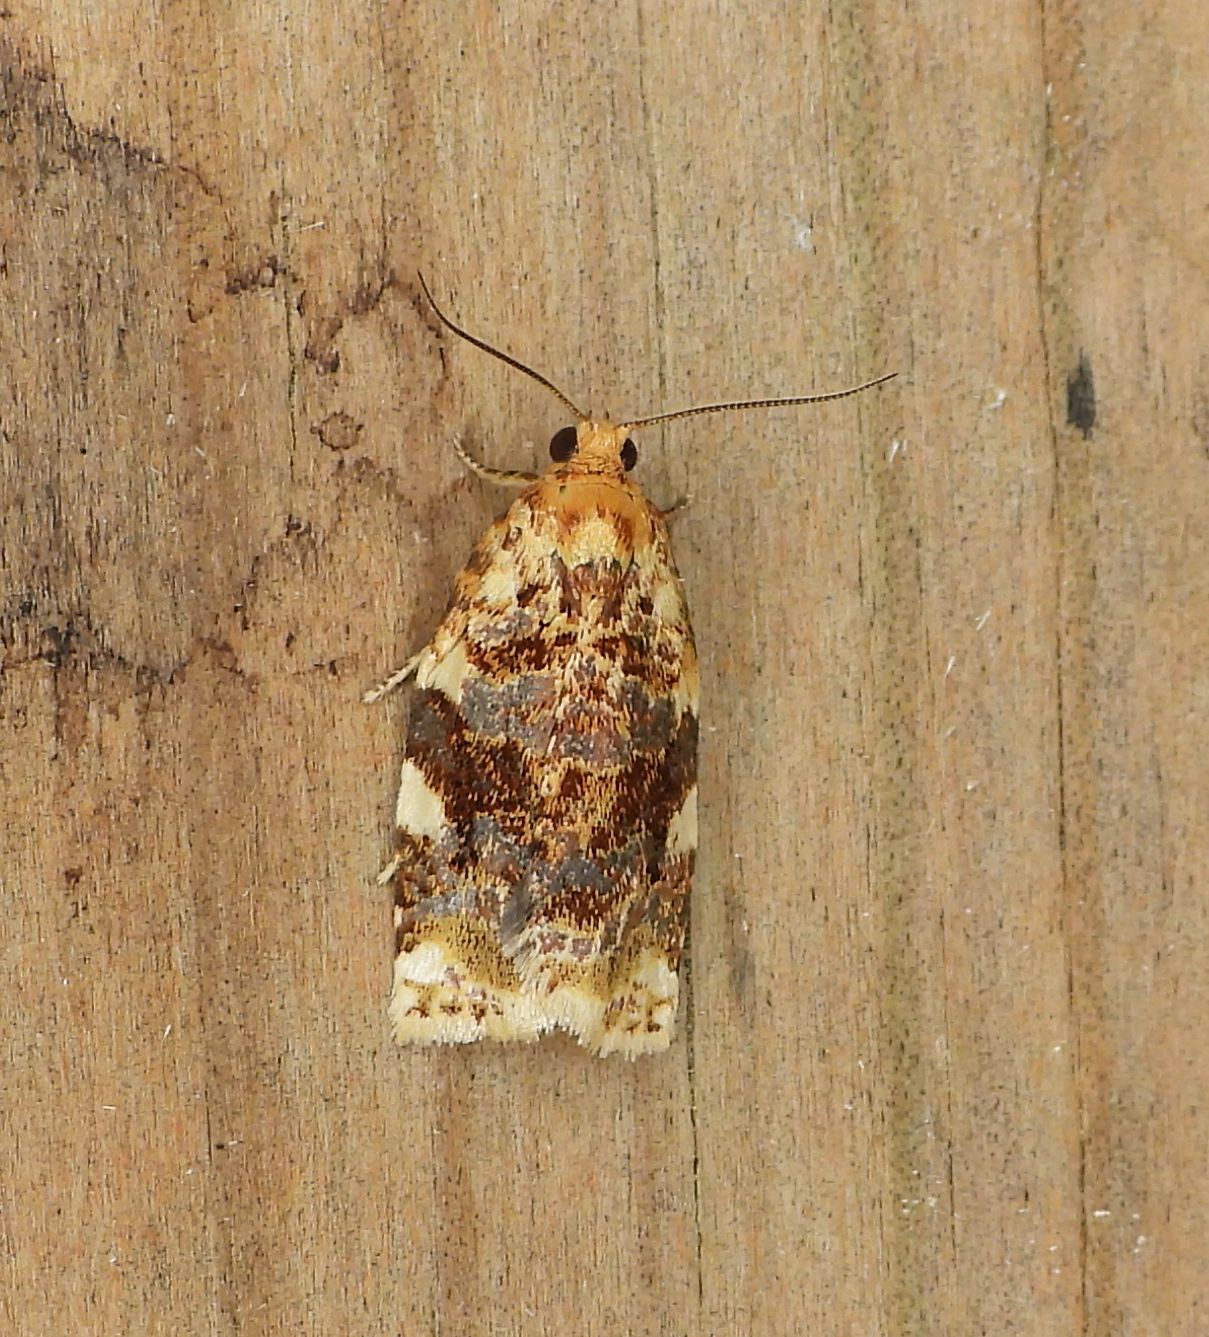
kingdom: Animalia
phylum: Arthropoda
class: Insecta
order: Lepidoptera
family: Tortricidae
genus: Archips
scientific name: Archips argyrospila
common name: Fruit-tree leafroller moth
